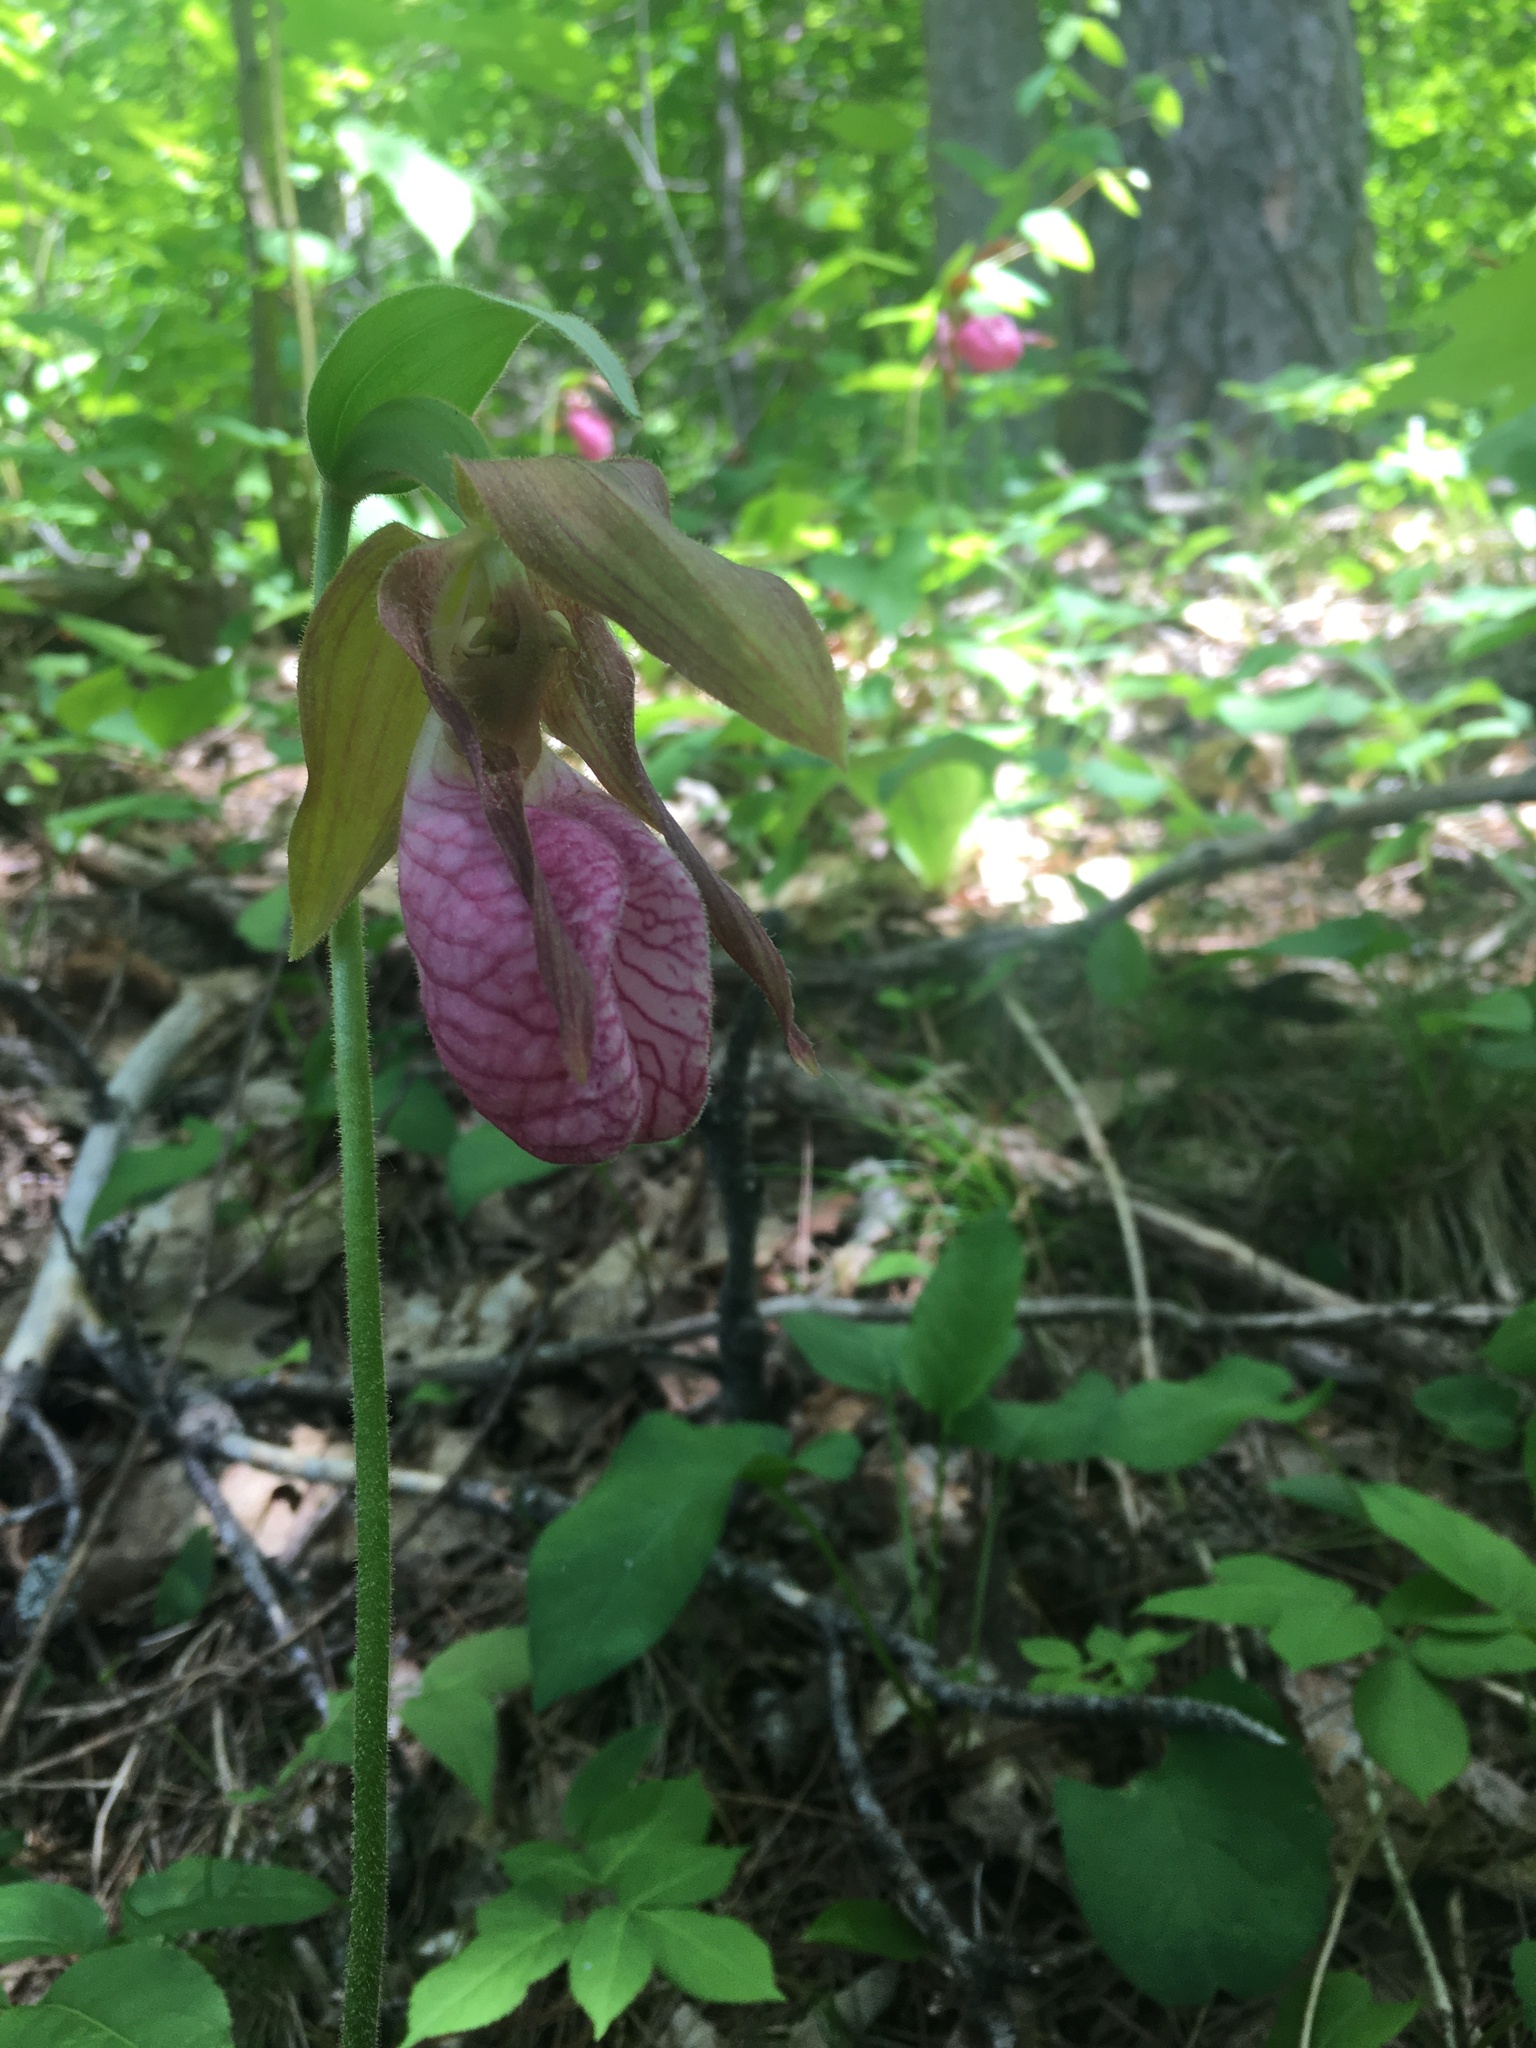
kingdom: Plantae
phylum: Tracheophyta
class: Liliopsida
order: Asparagales
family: Orchidaceae
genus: Cypripedium
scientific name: Cypripedium acaule
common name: Pink lady's-slipper
